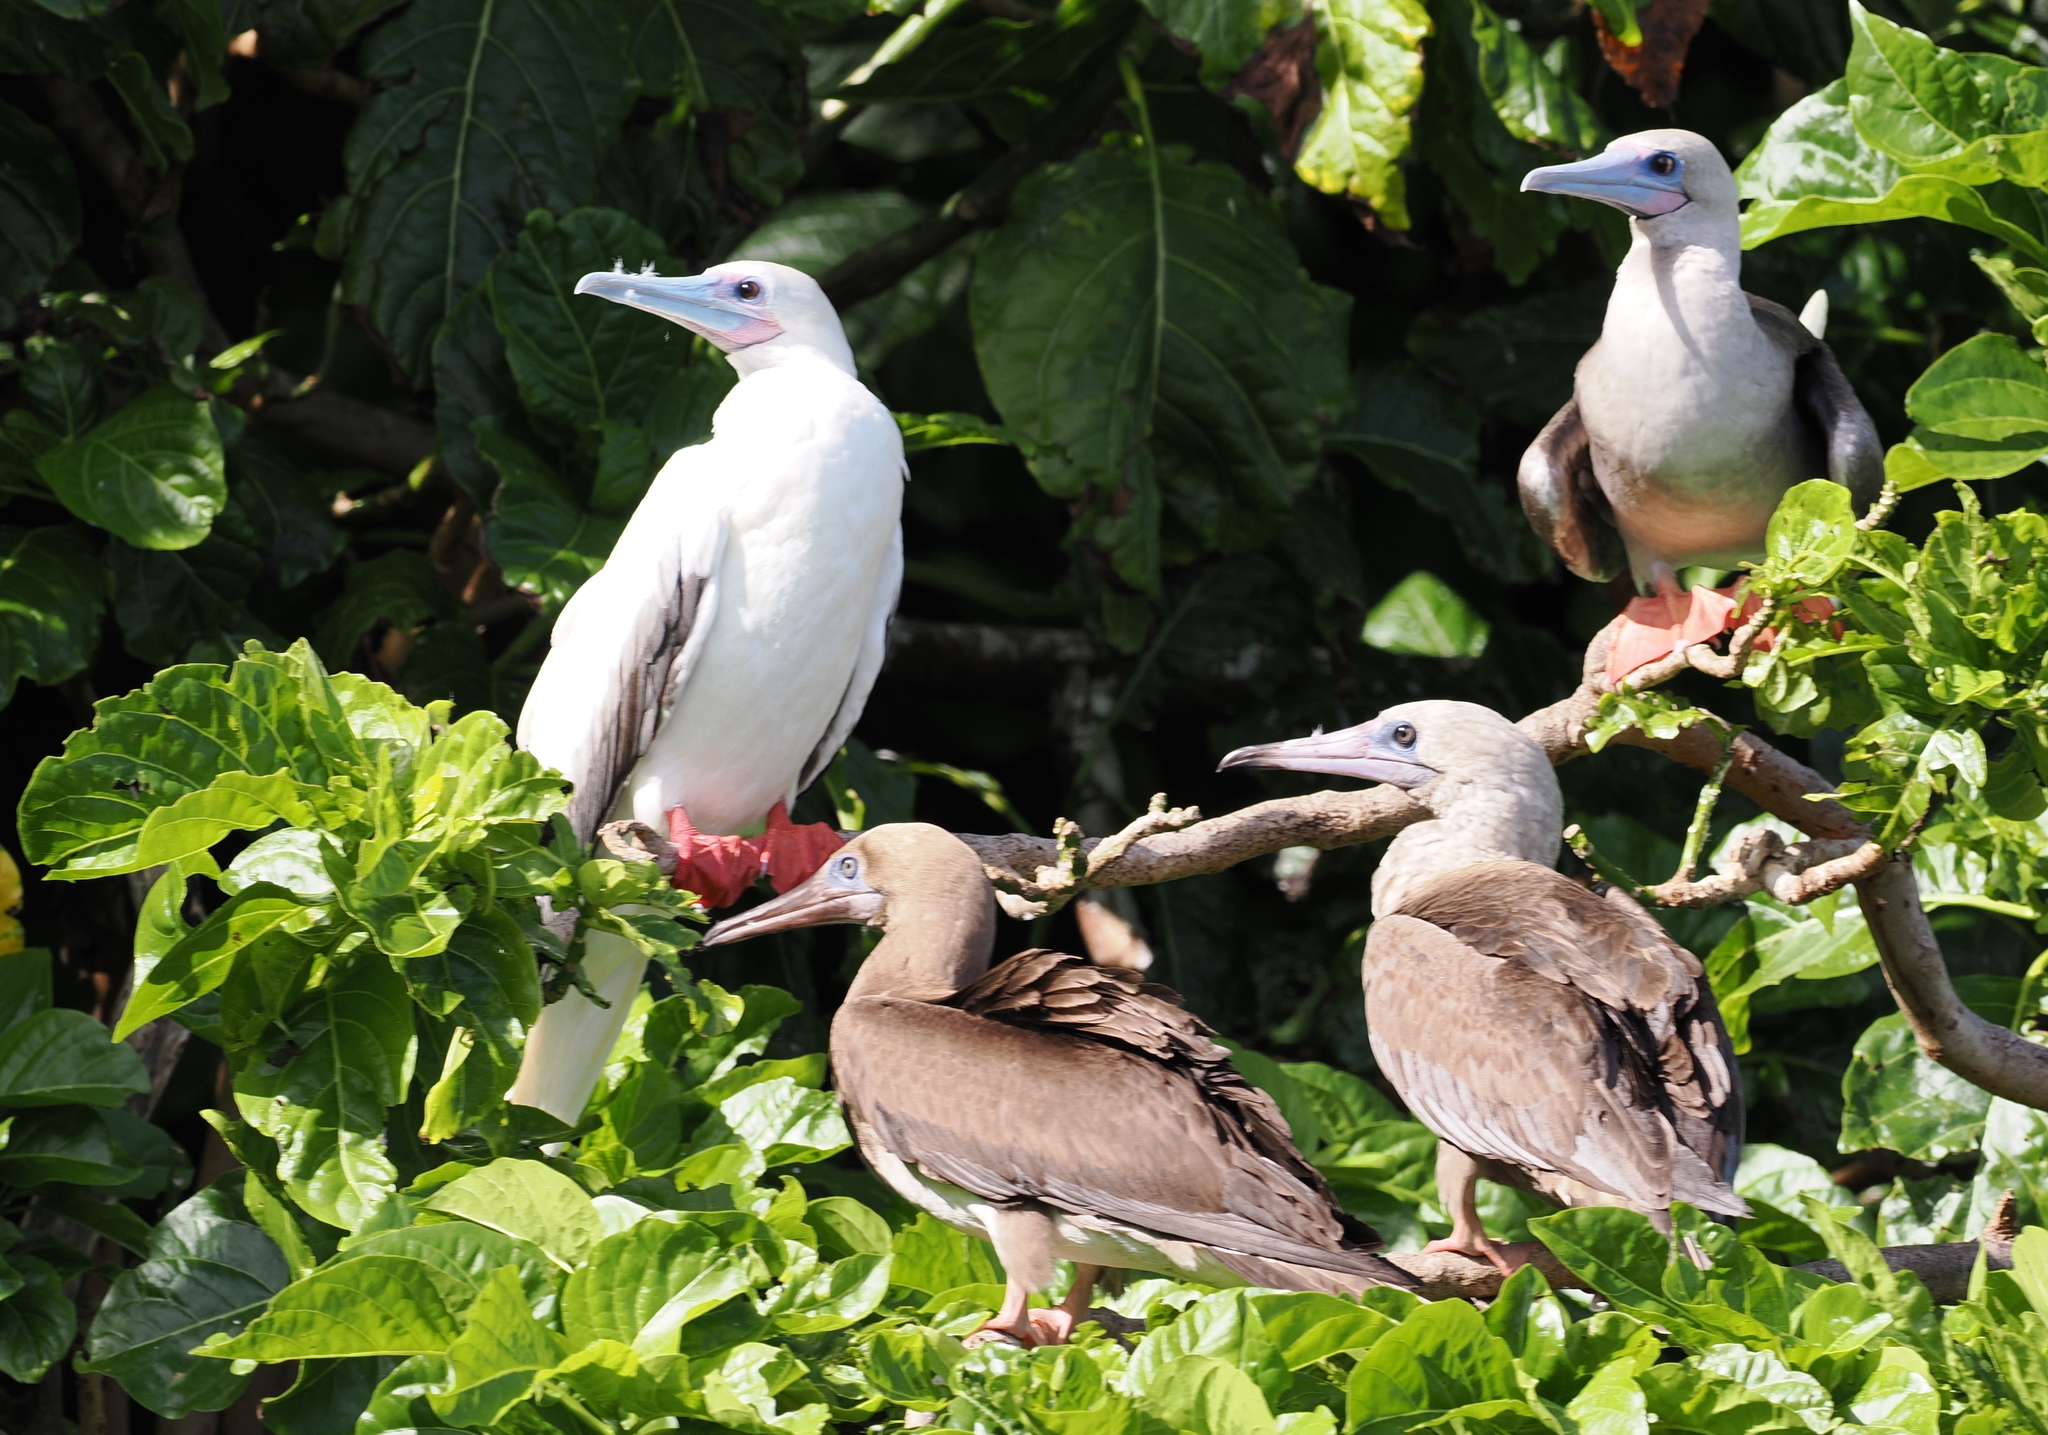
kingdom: Animalia
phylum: Chordata
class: Aves
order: Suliformes
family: Sulidae
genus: Sula
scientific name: Sula sula
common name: Red-footed booby
